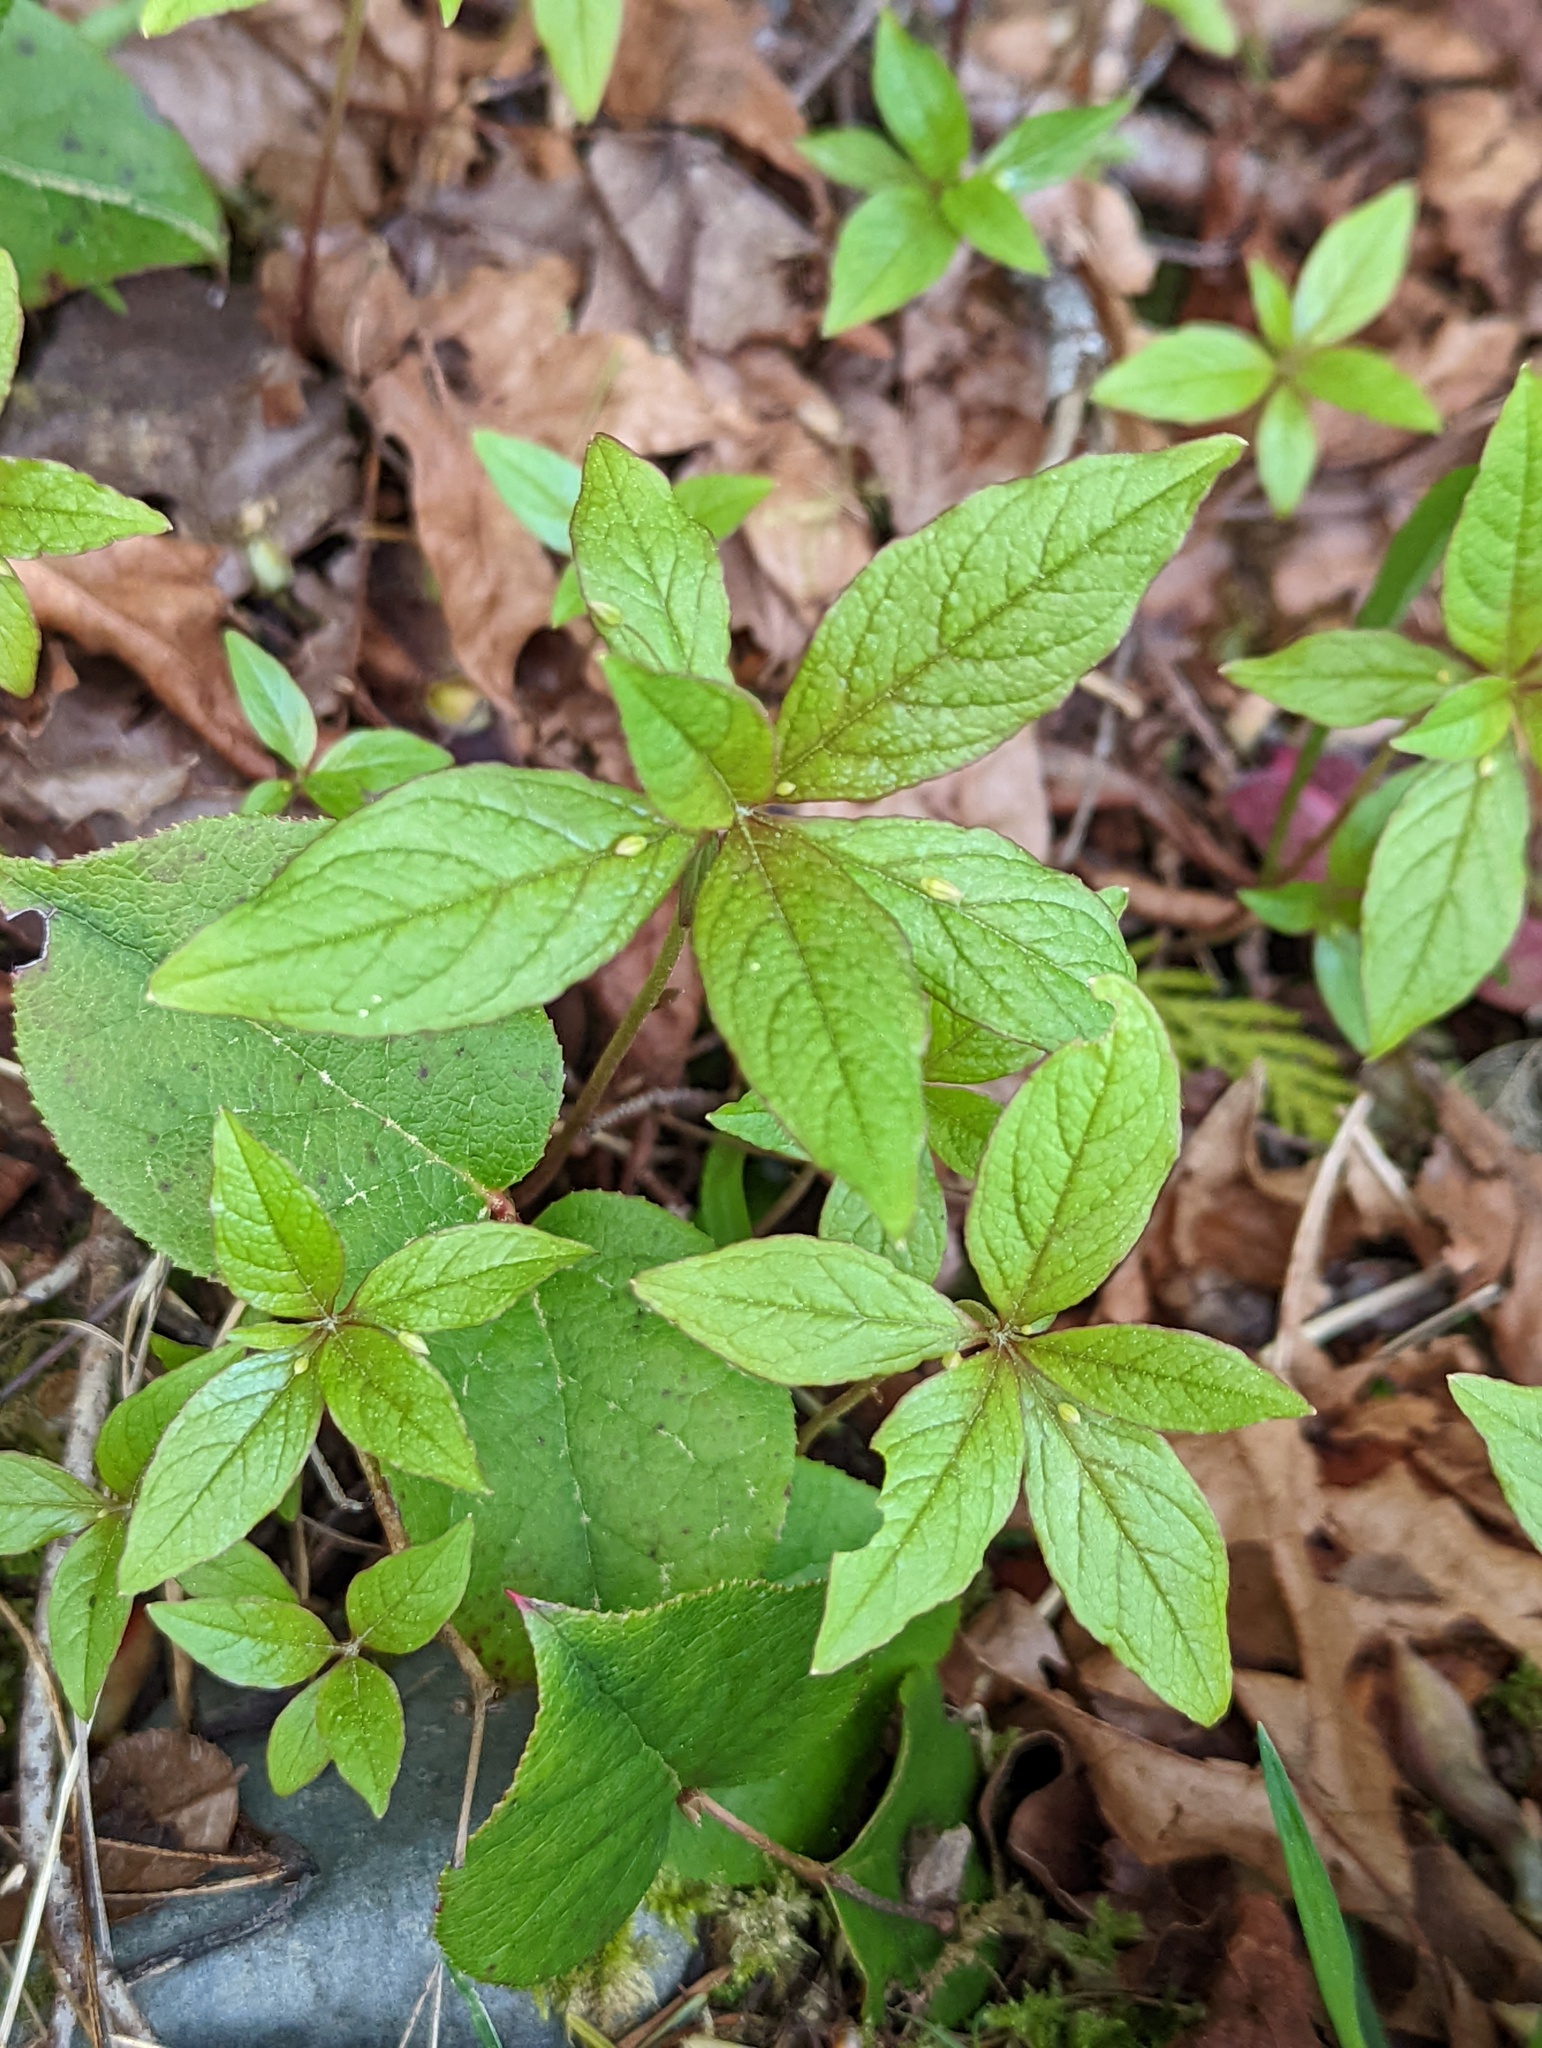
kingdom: Plantae
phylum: Tracheophyta
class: Magnoliopsida
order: Ericales
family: Primulaceae
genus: Lysimachia
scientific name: Lysimachia latifolia
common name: Pacific starflower
